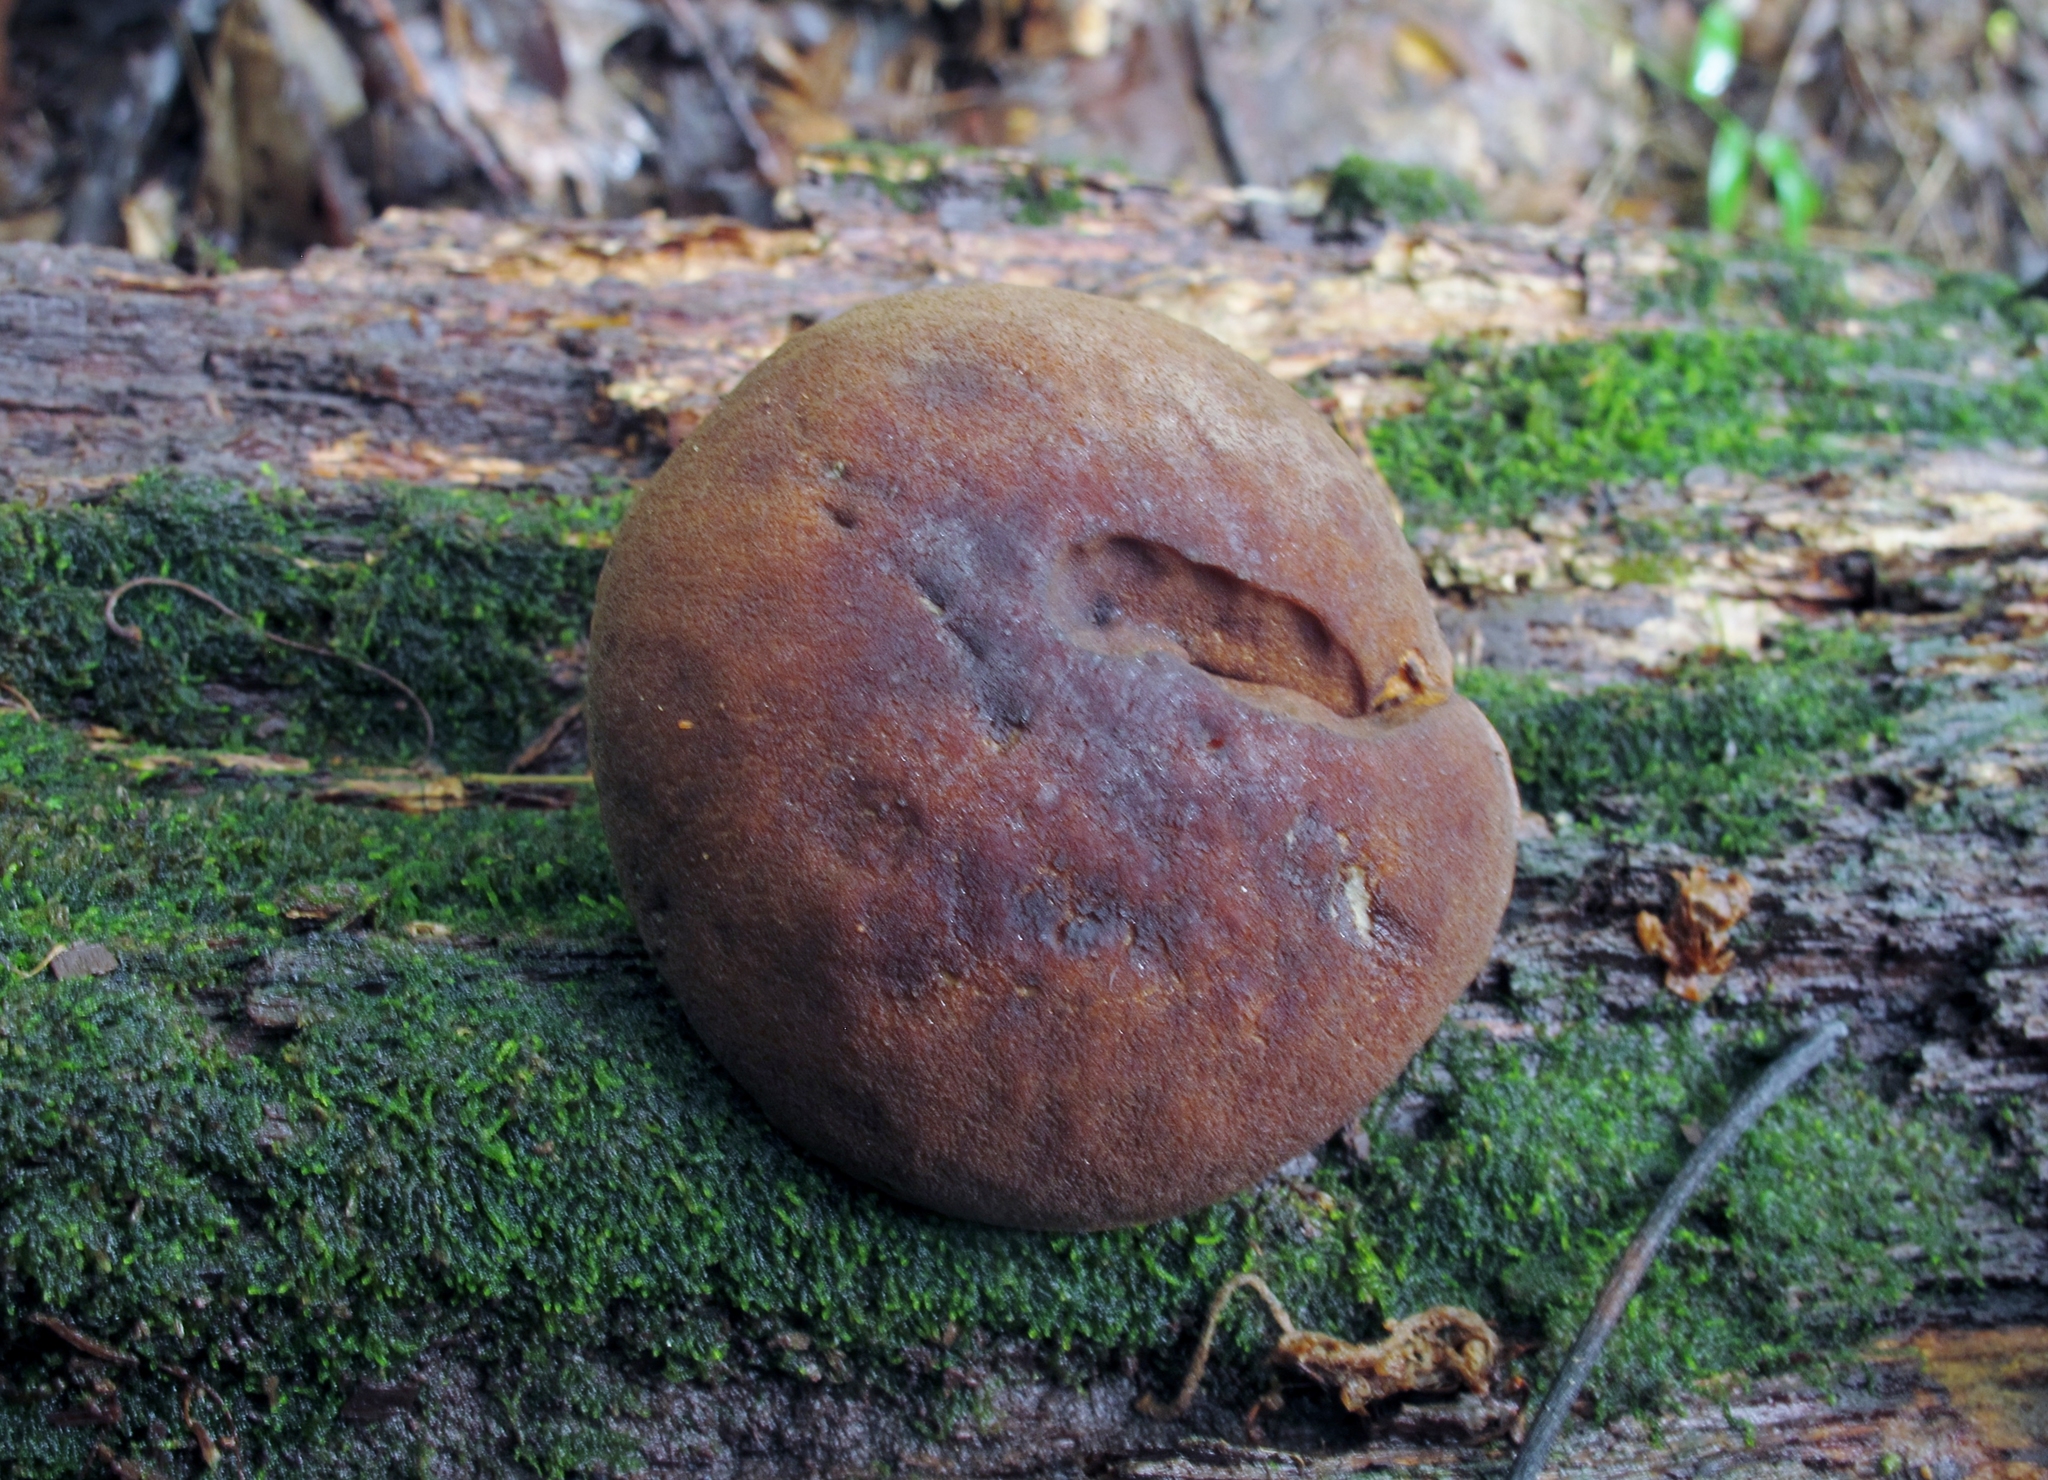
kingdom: Fungi
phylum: Basidiomycota
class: Agaricomycetes
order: Boletales
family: Boletaceae
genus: Boletellus
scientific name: Boletellus chrysenteroides
